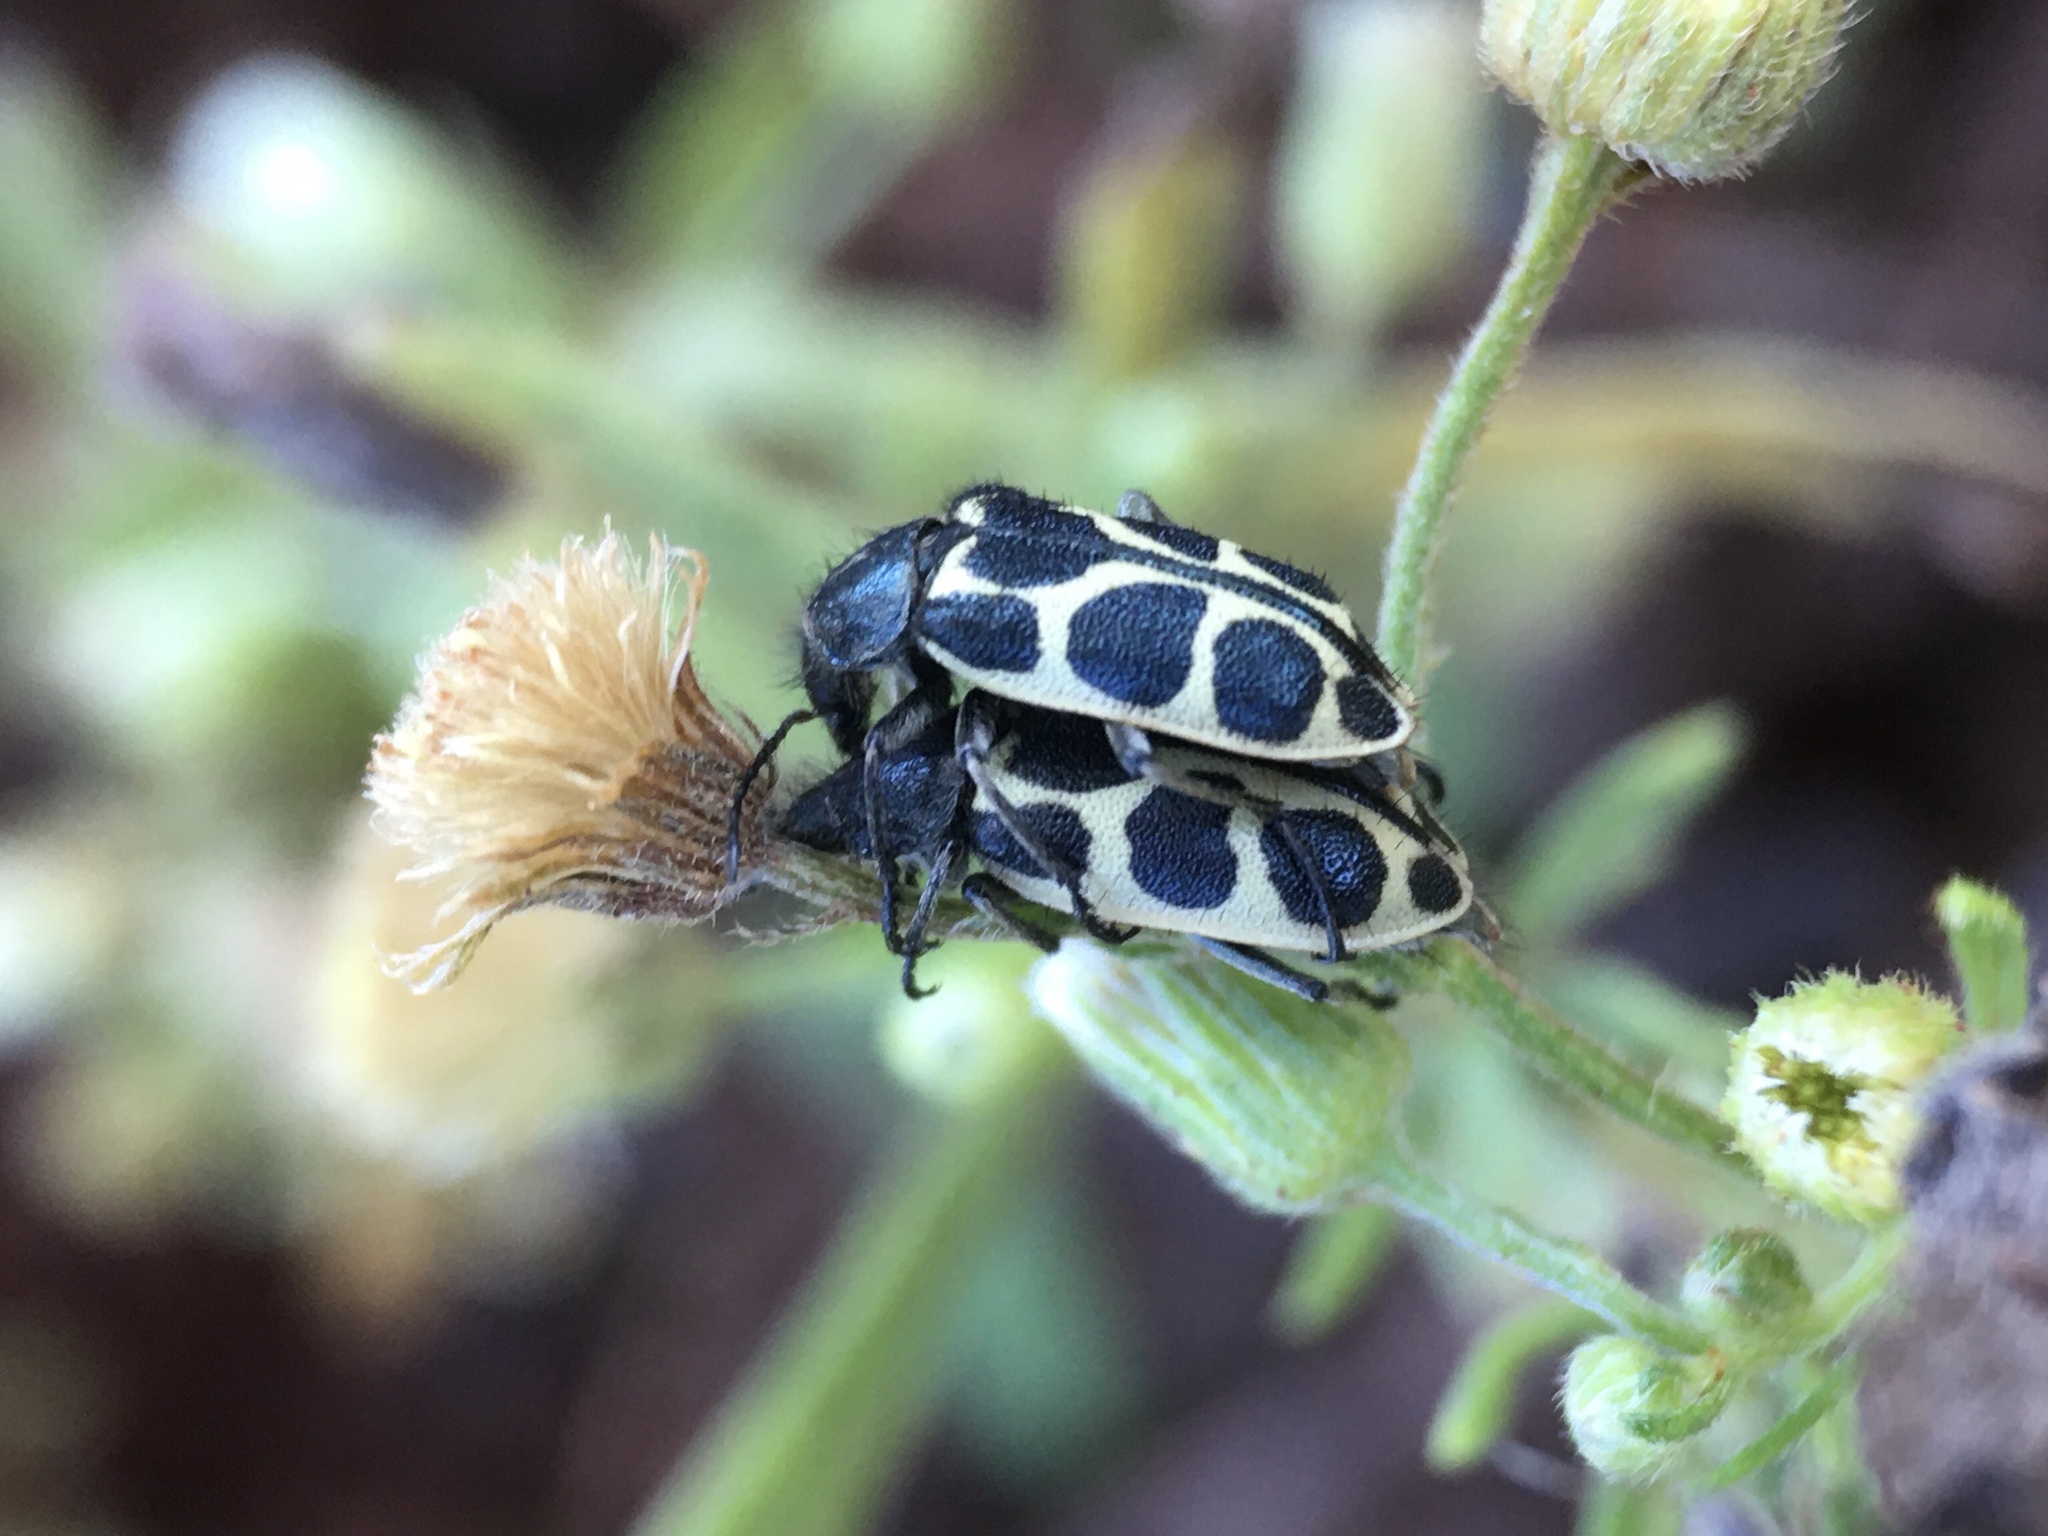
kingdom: Animalia
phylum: Arthropoda
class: Insecta
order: Coleoptera
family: Melyridae
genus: Astylus
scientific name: Astylus
